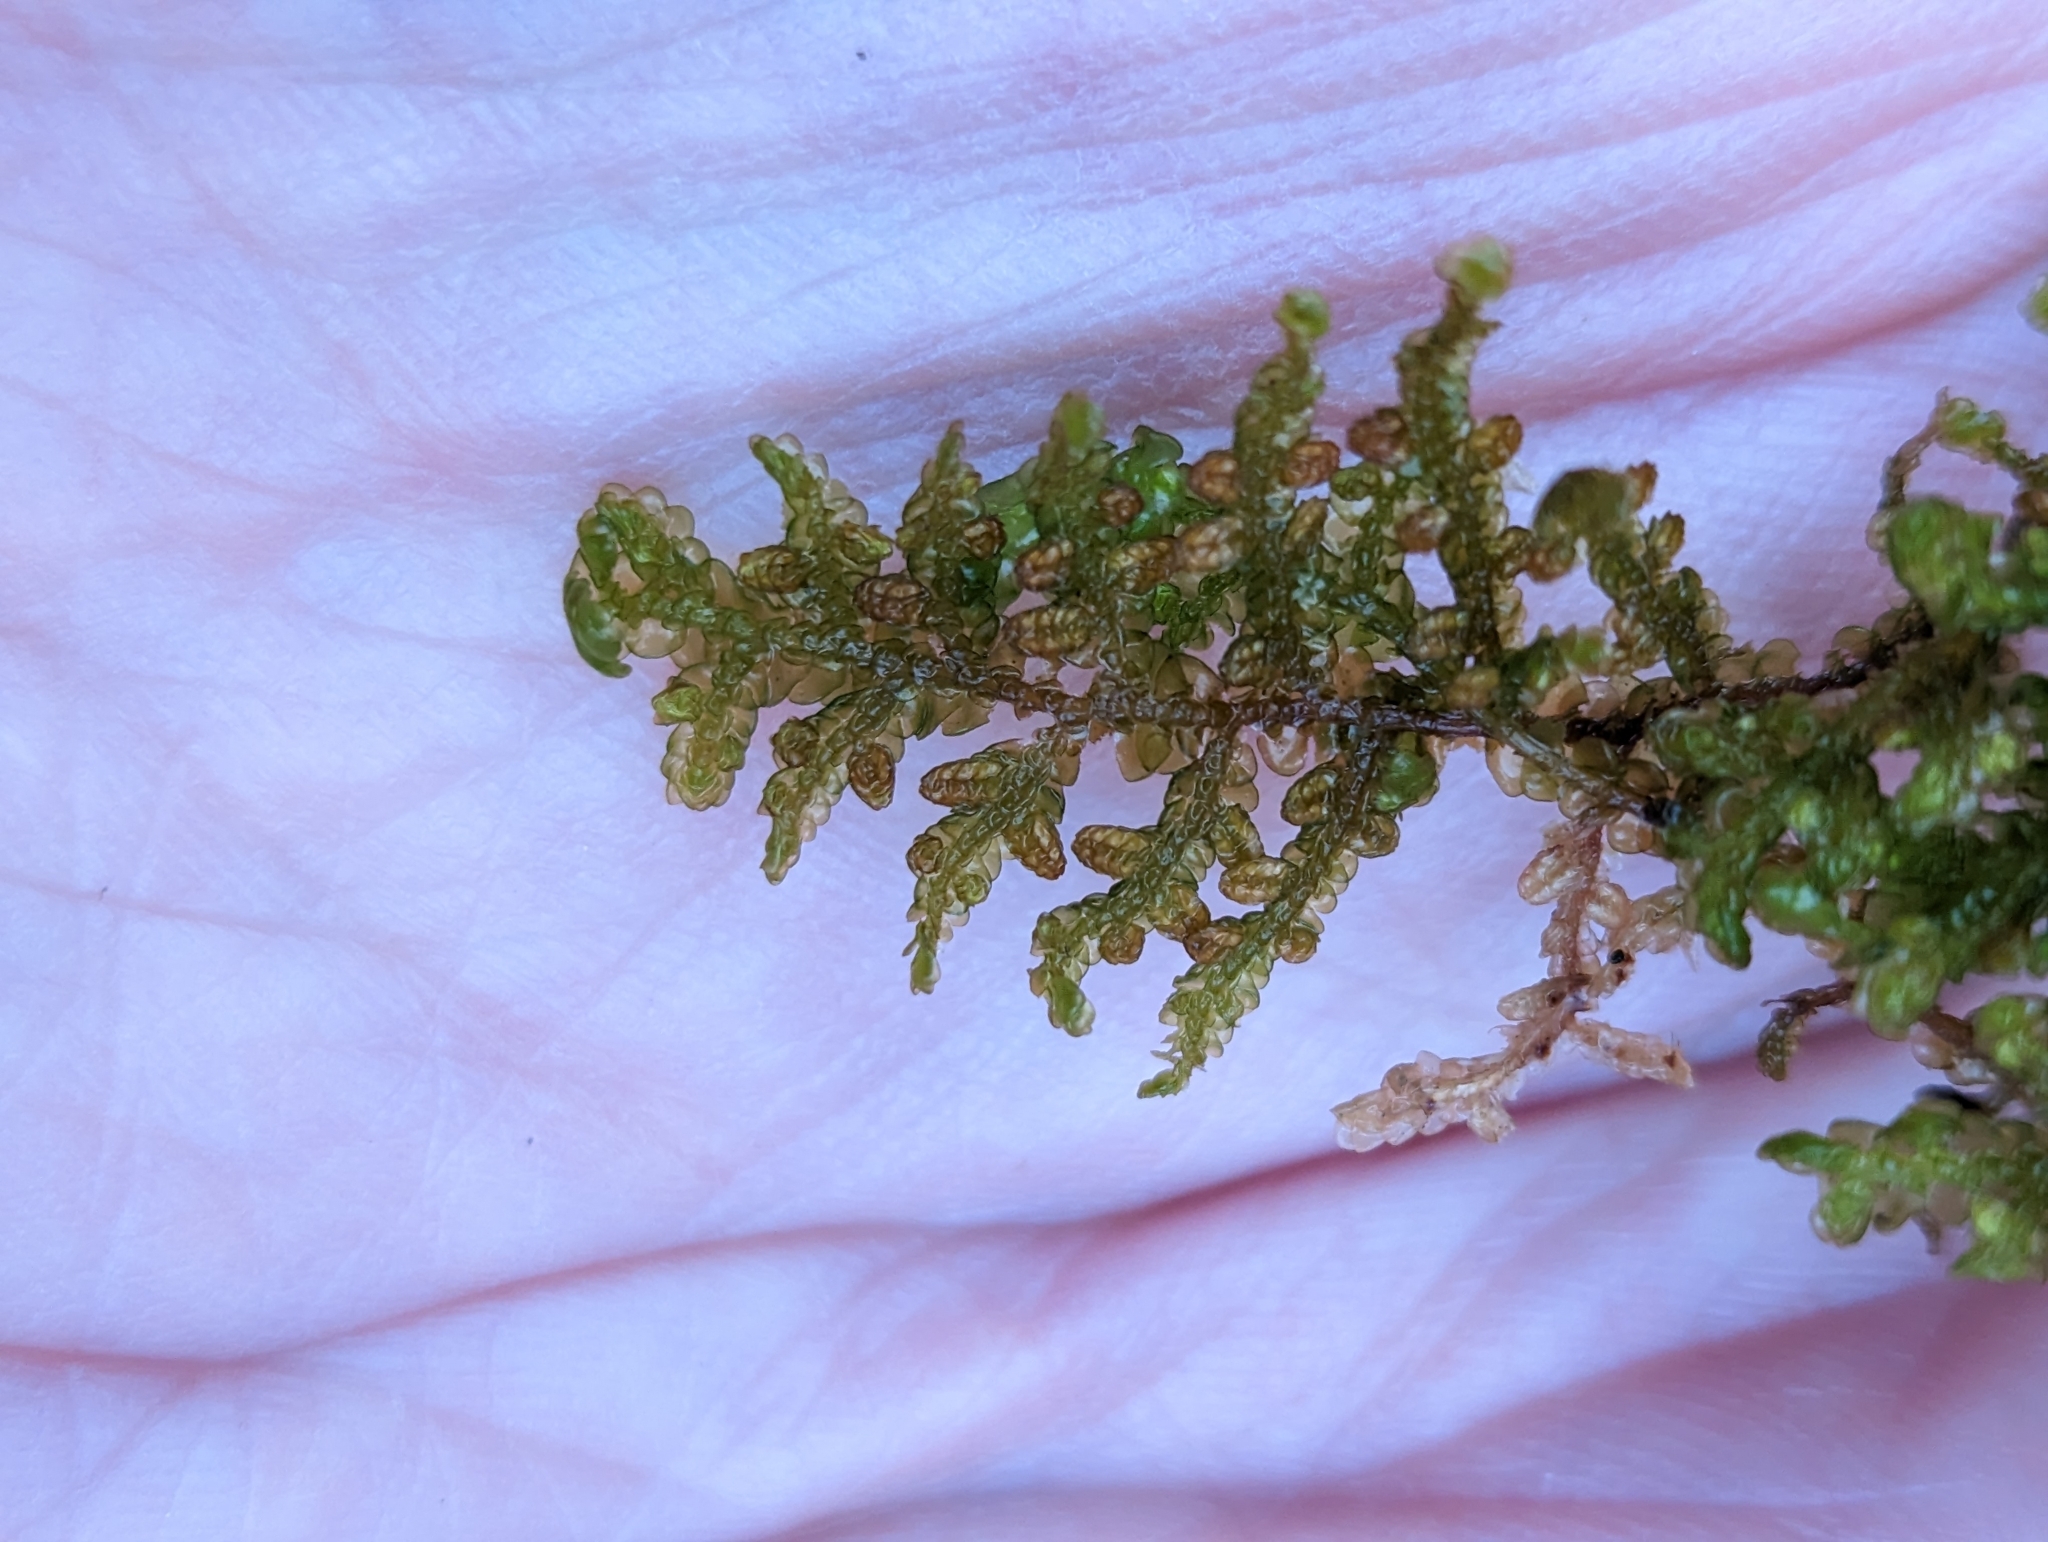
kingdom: Plantae
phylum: Marchantiophyta
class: Jungermanniopsida
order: Porellales
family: Porellaceae
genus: Porella
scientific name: Porella navicularis
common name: Tree ruffle liverwort
